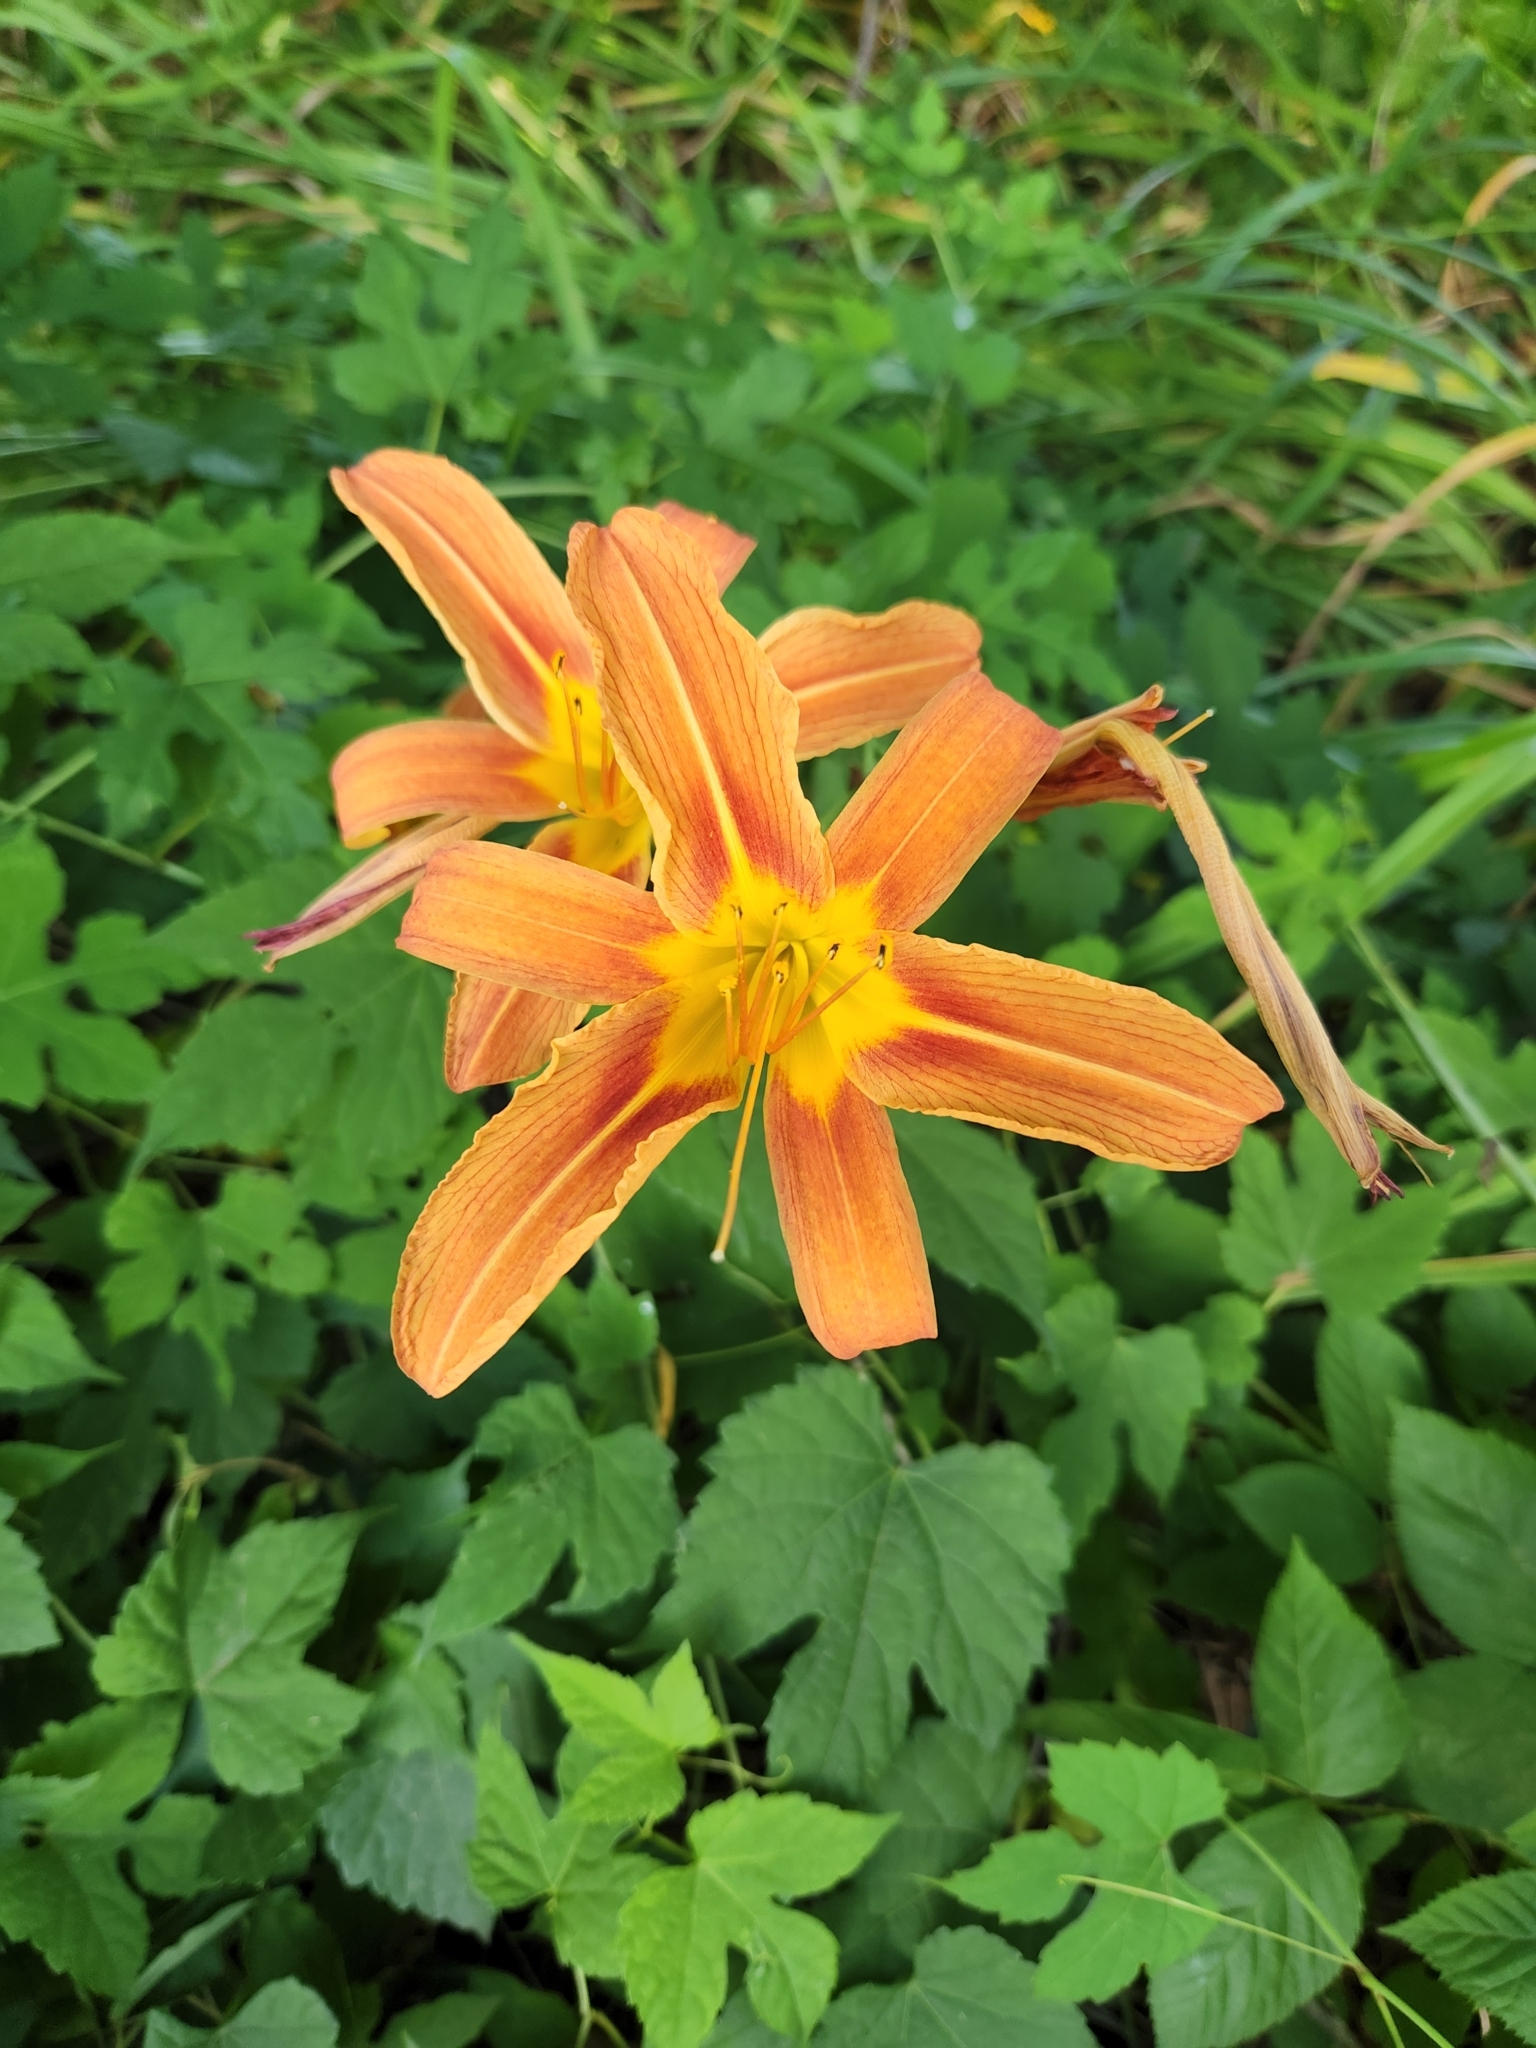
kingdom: Plantae
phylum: Tracheophyta
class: Liliopsida
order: Asparagales
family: Asphodelaceae
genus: Hemerocallis
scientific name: Hemerocallis fulva
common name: Orange day-lily
